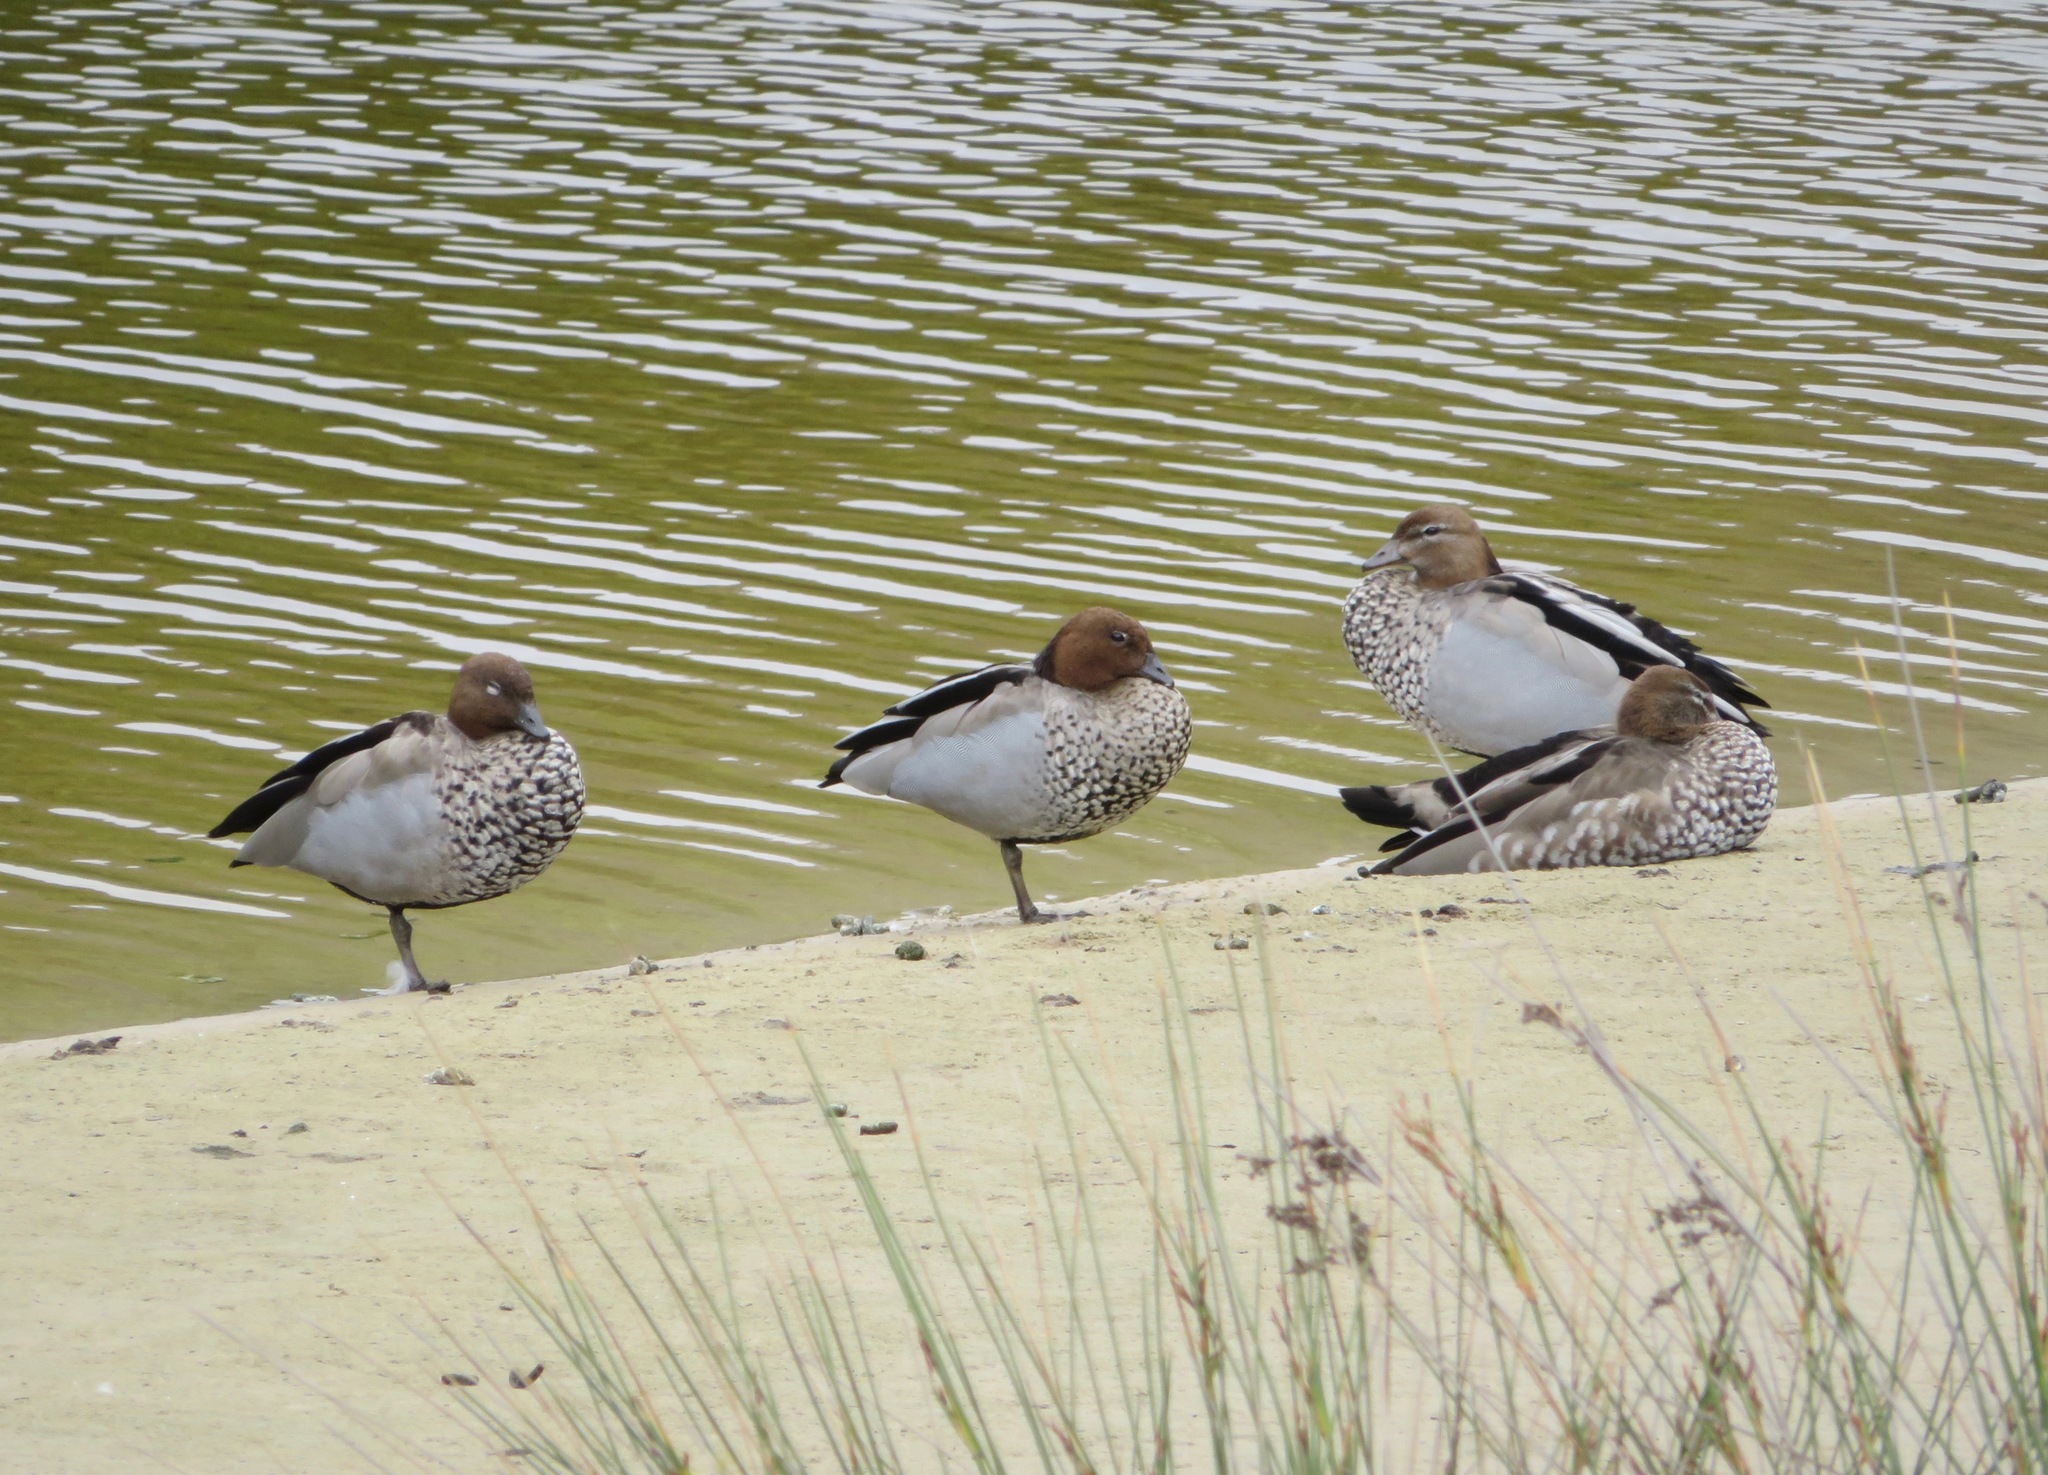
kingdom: Animalia
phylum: Chordata
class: Aves
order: Anseriformes
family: Anatidae
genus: Chenonetta
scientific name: Chenonetta jubata
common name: Maned duck
